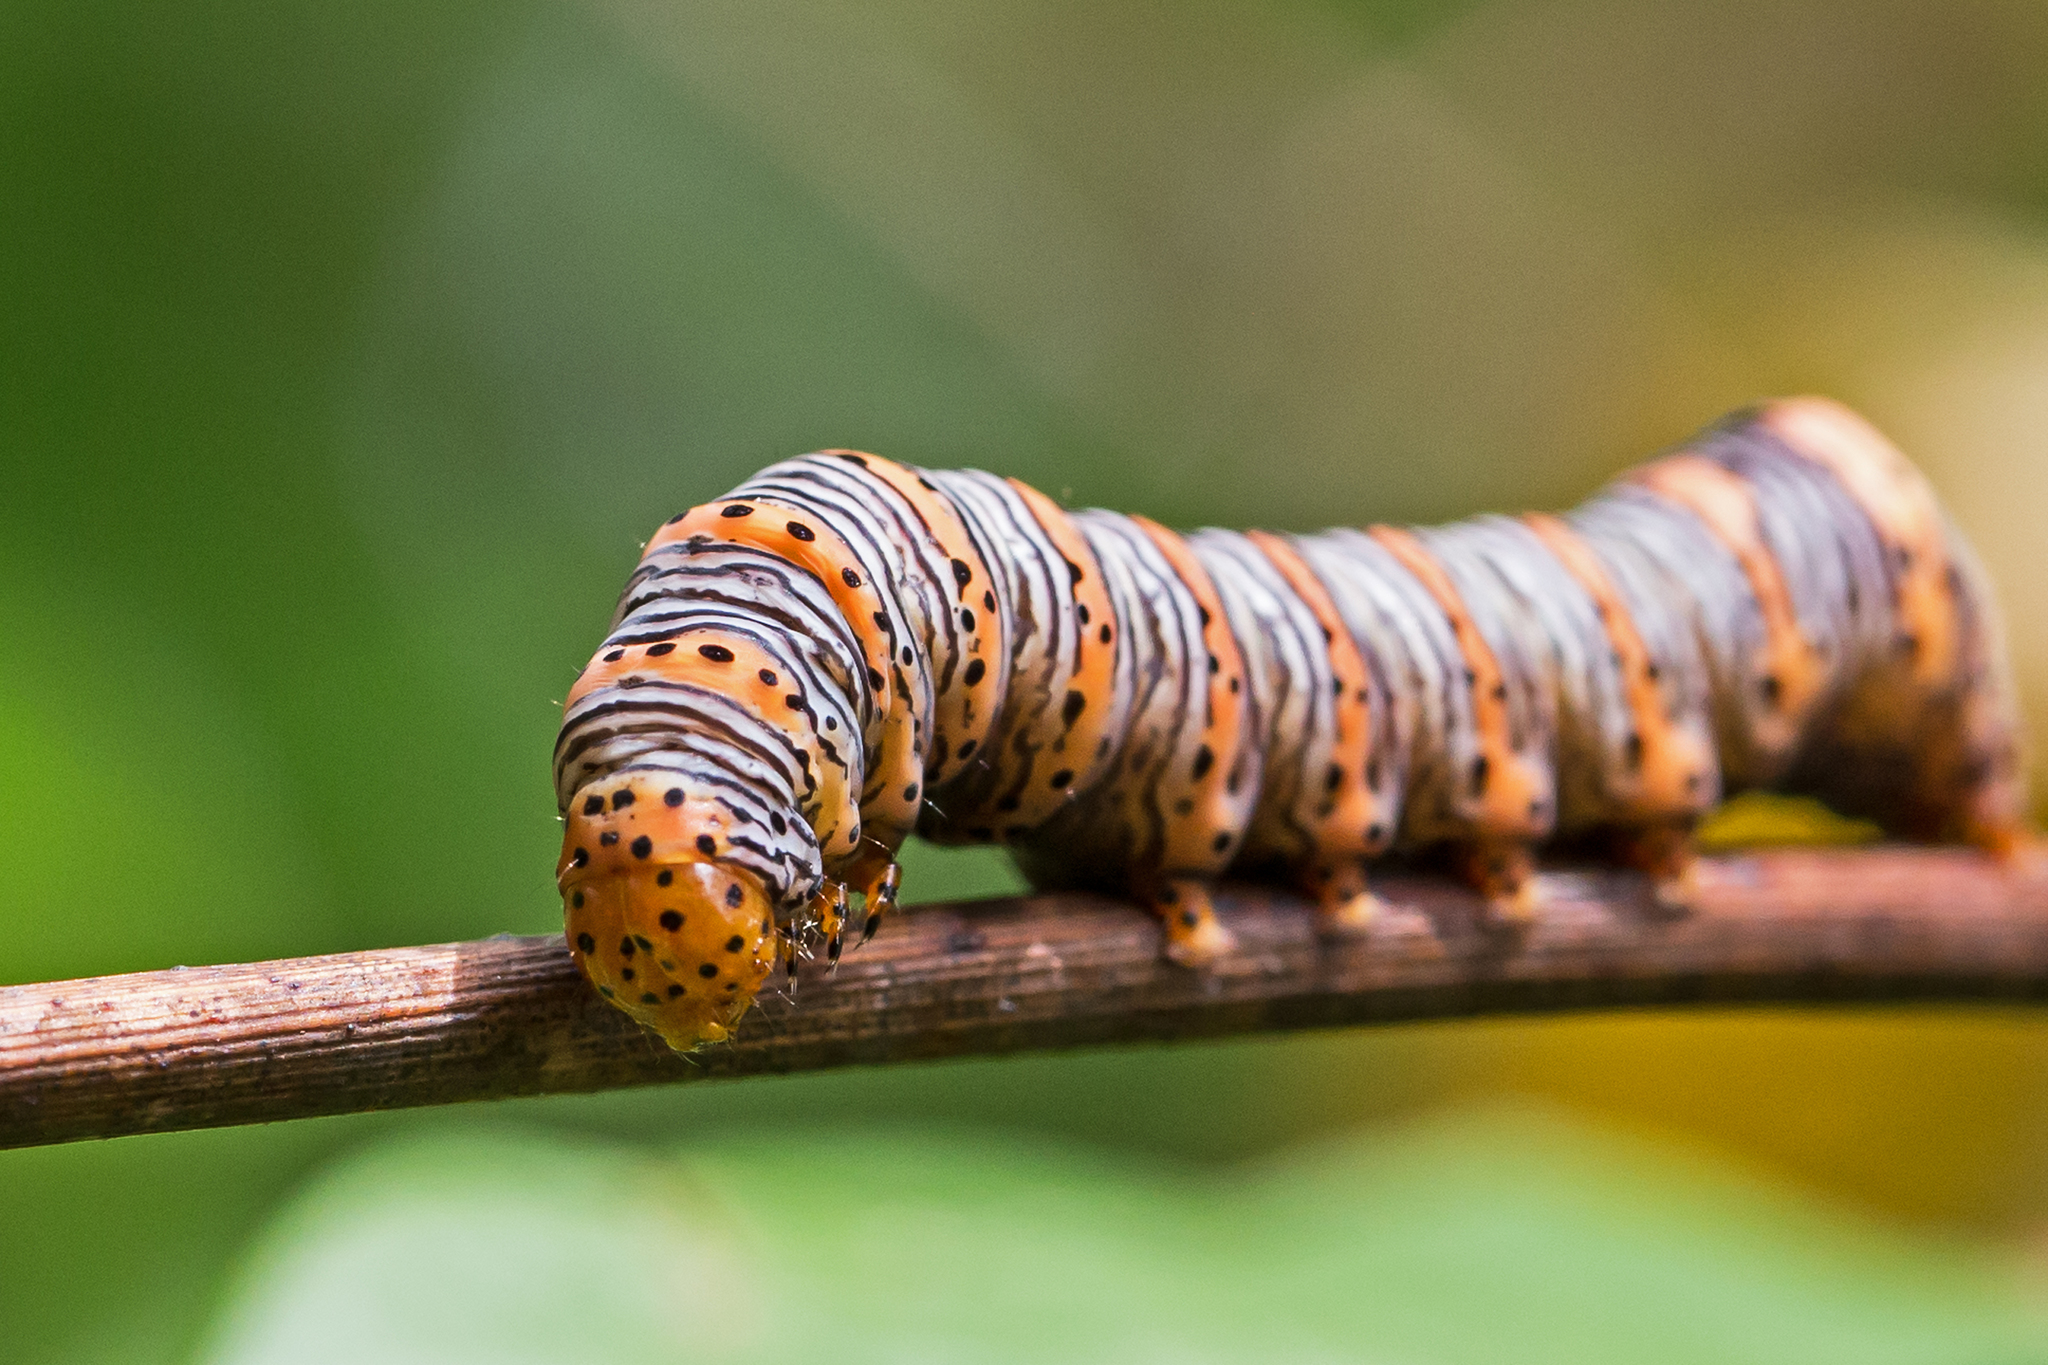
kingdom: Animalia
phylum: Arthropoda
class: Insecta
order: Lepidoptera
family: Noctuidae
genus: Eudryas
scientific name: Eudryas grata
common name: Beautiful wood-nymph
